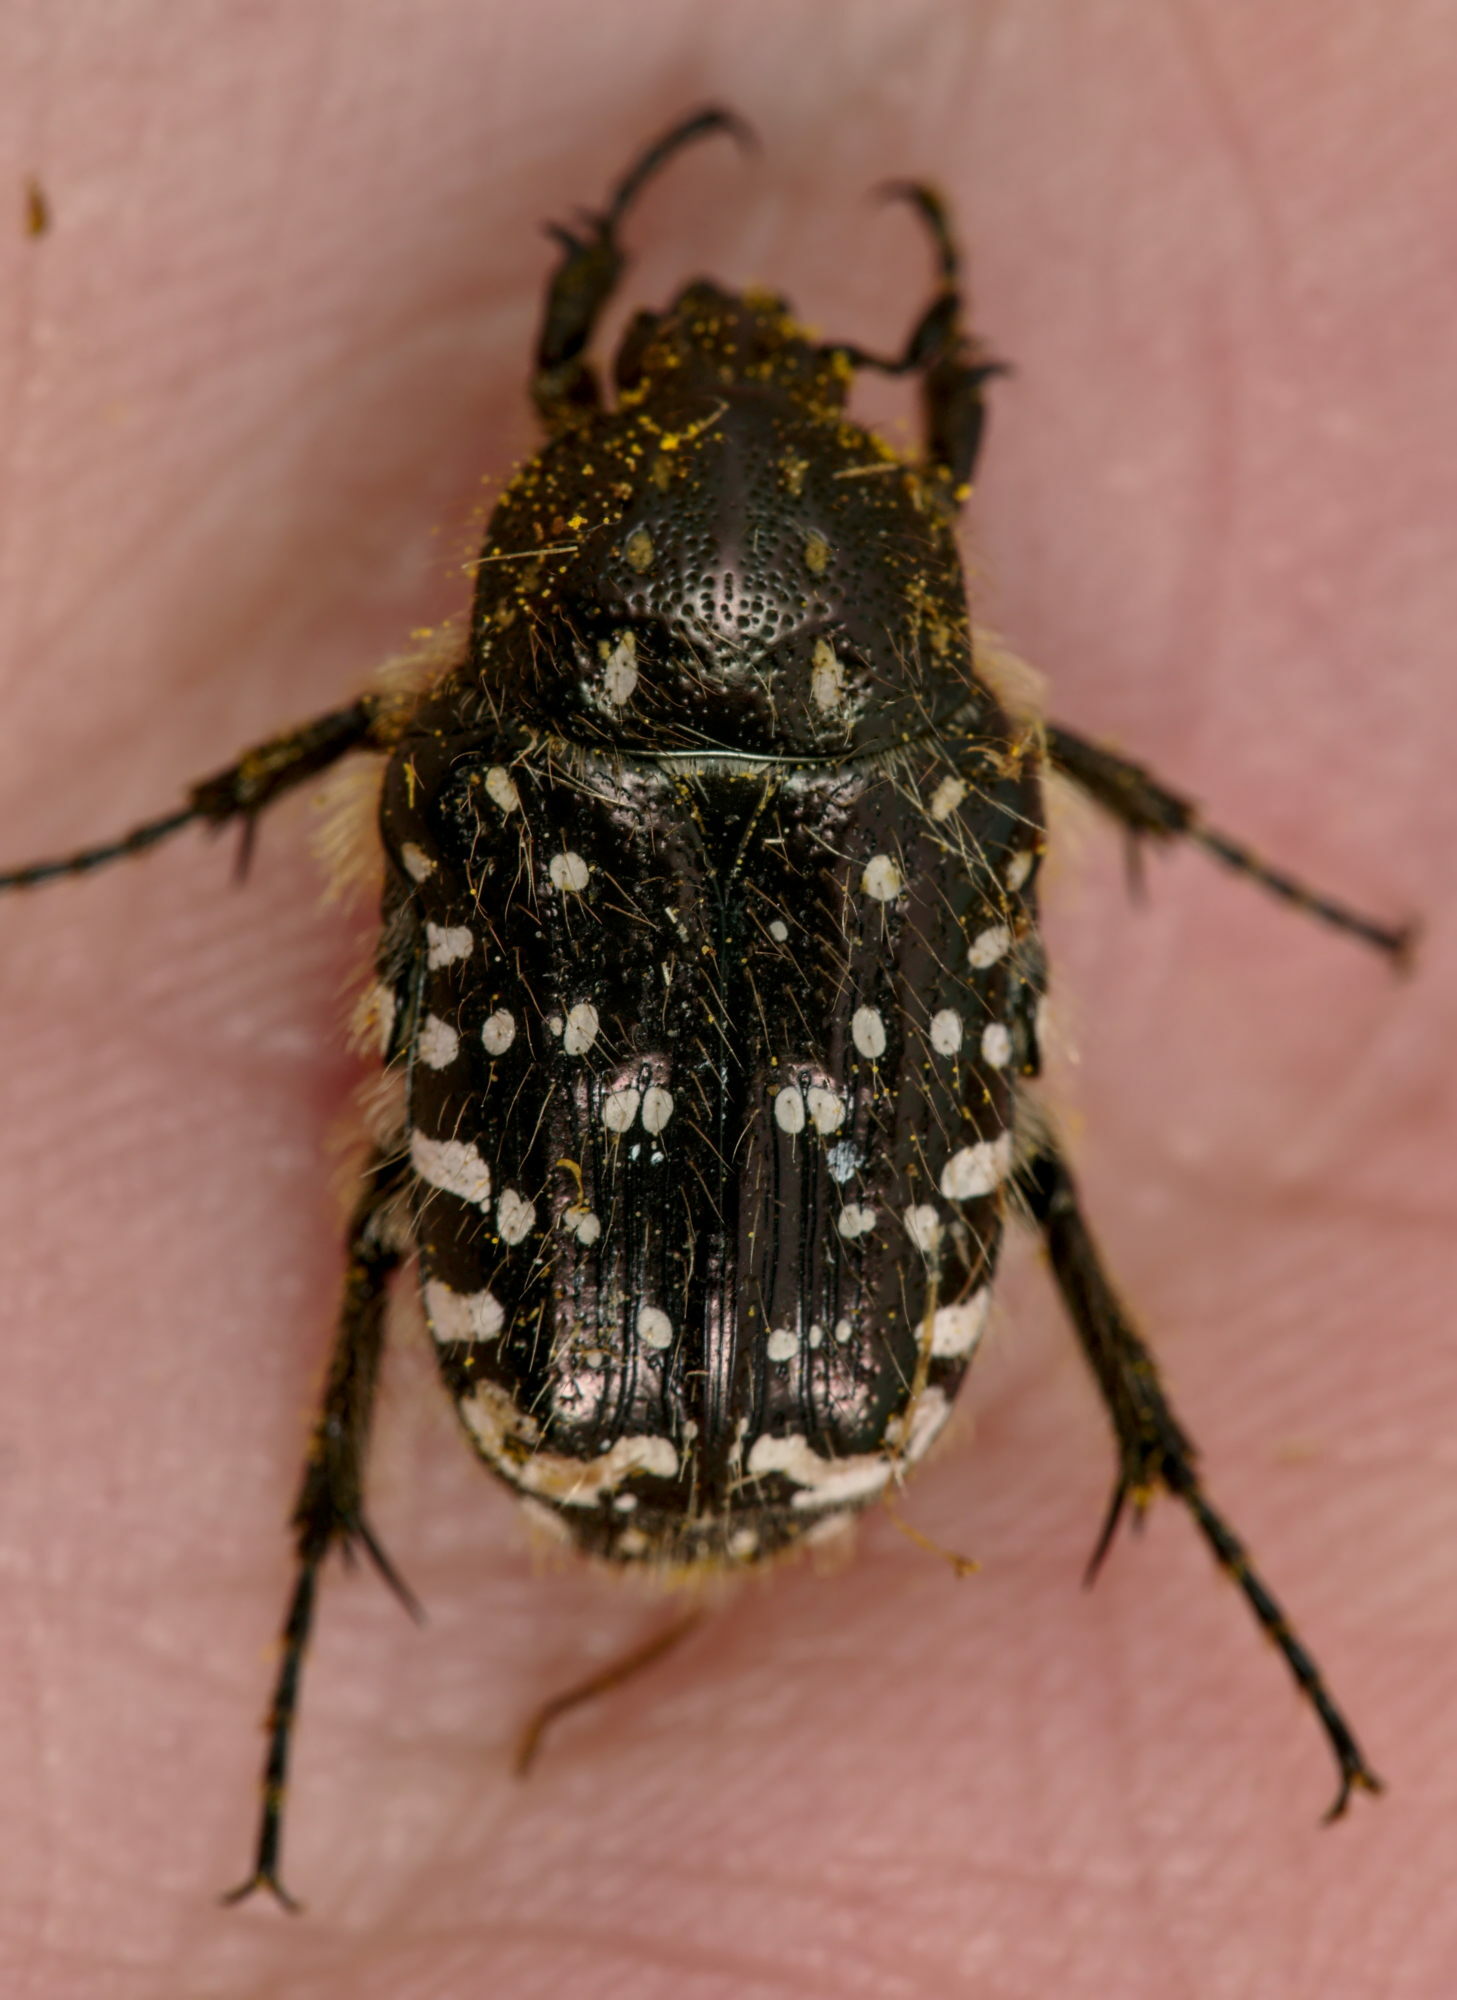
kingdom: Animalia
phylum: Arthropoda
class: Insecta
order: Coleoptera
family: Scarabaeidae
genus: Oxythyrea
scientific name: Oxythyrea funesta
